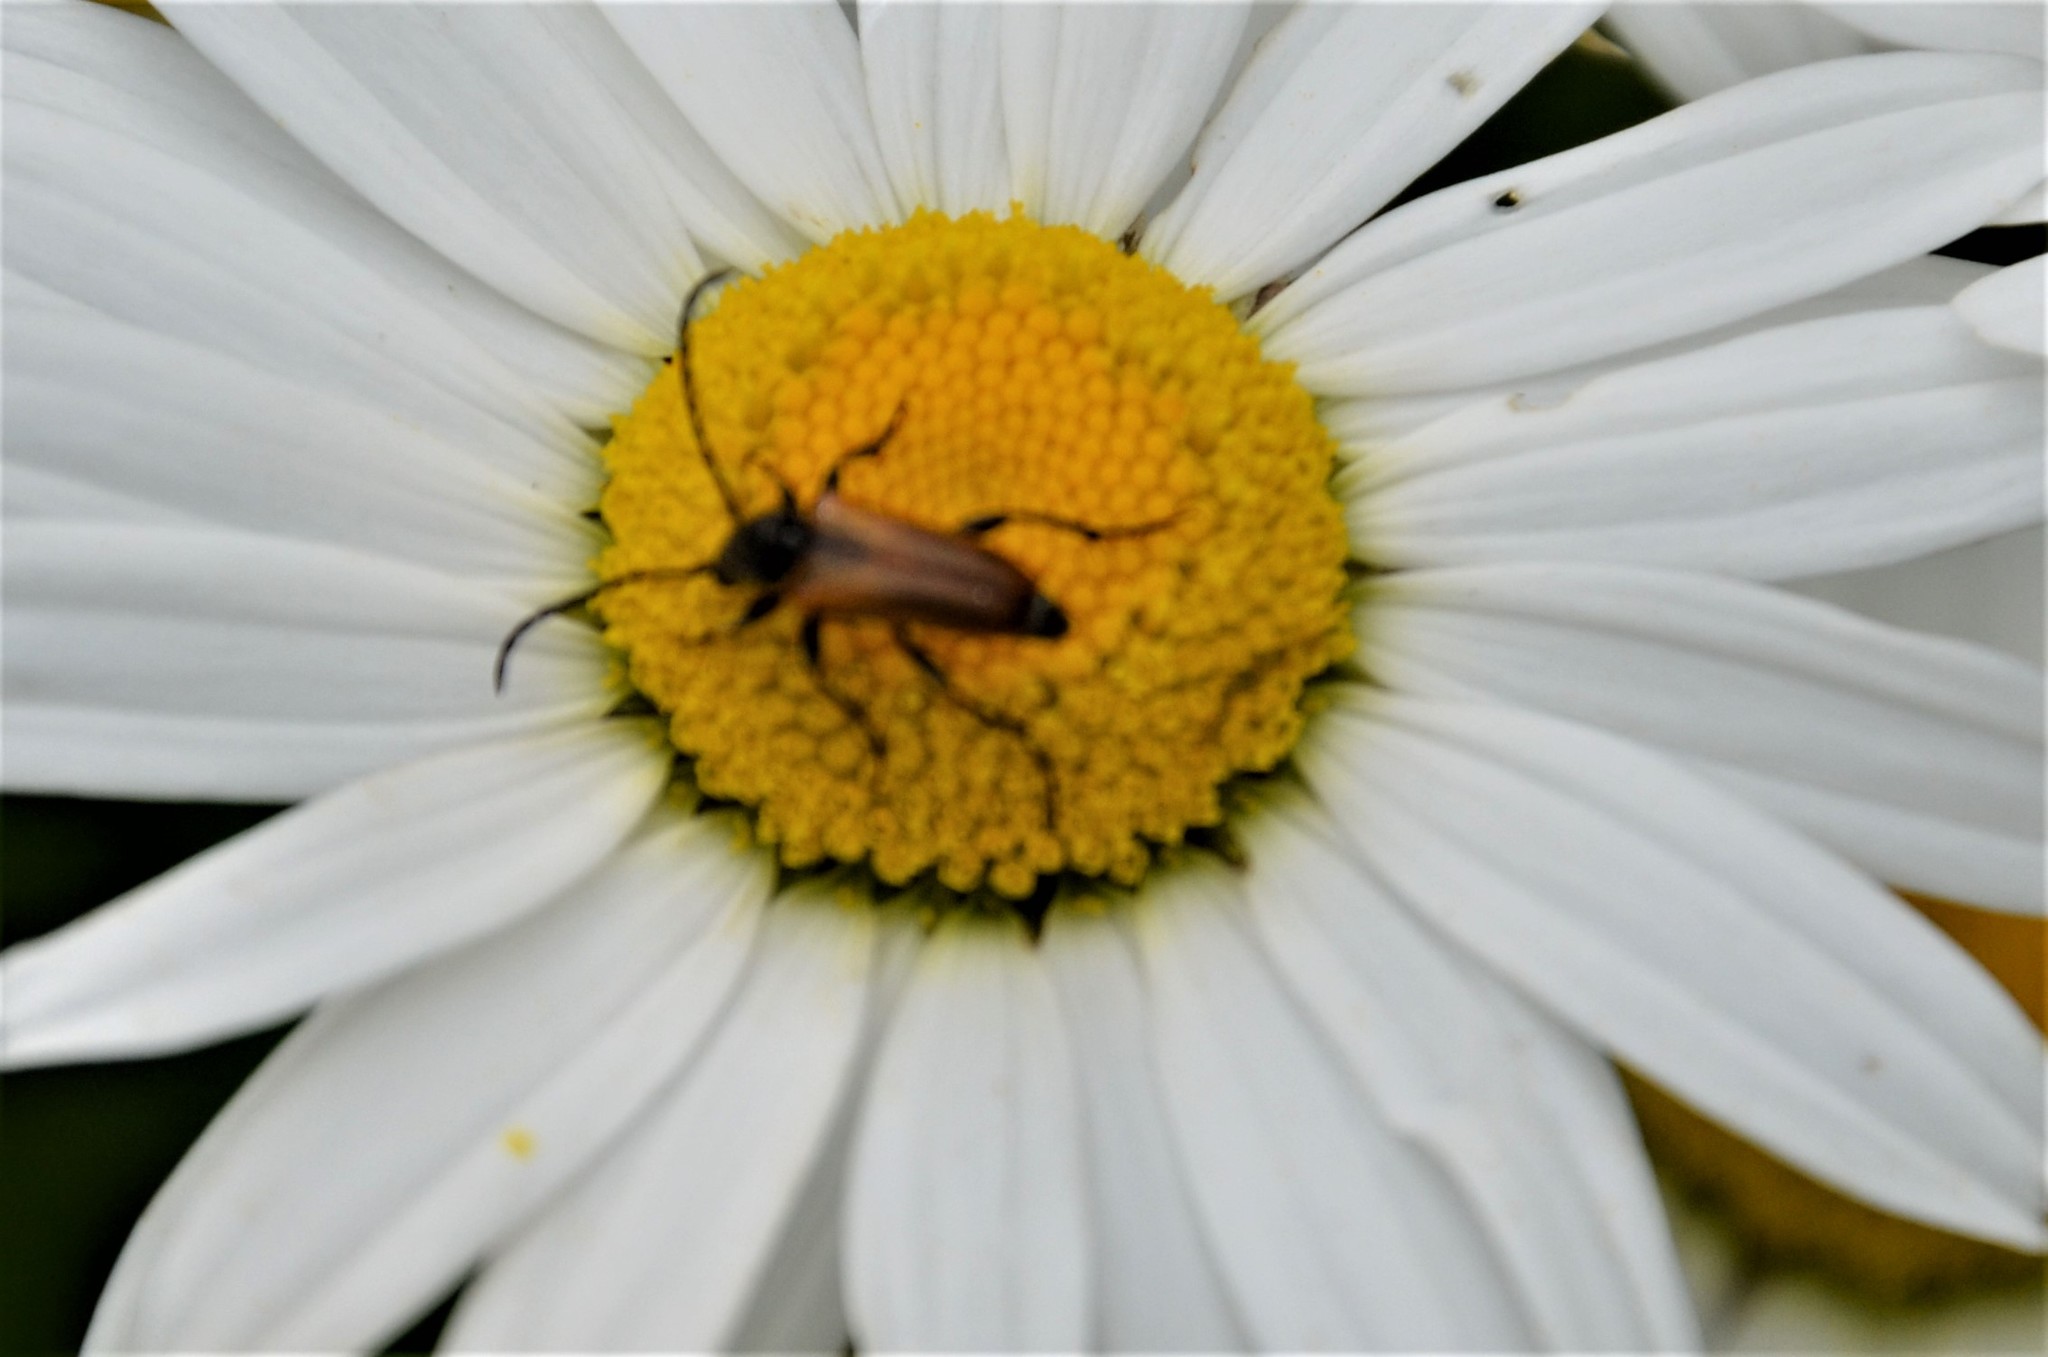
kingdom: Animalia
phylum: Arthropoda
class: Insecta
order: Coleoptera
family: Cerambycidae
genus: Pseudovadonia
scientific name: Pseudovadonia livida
